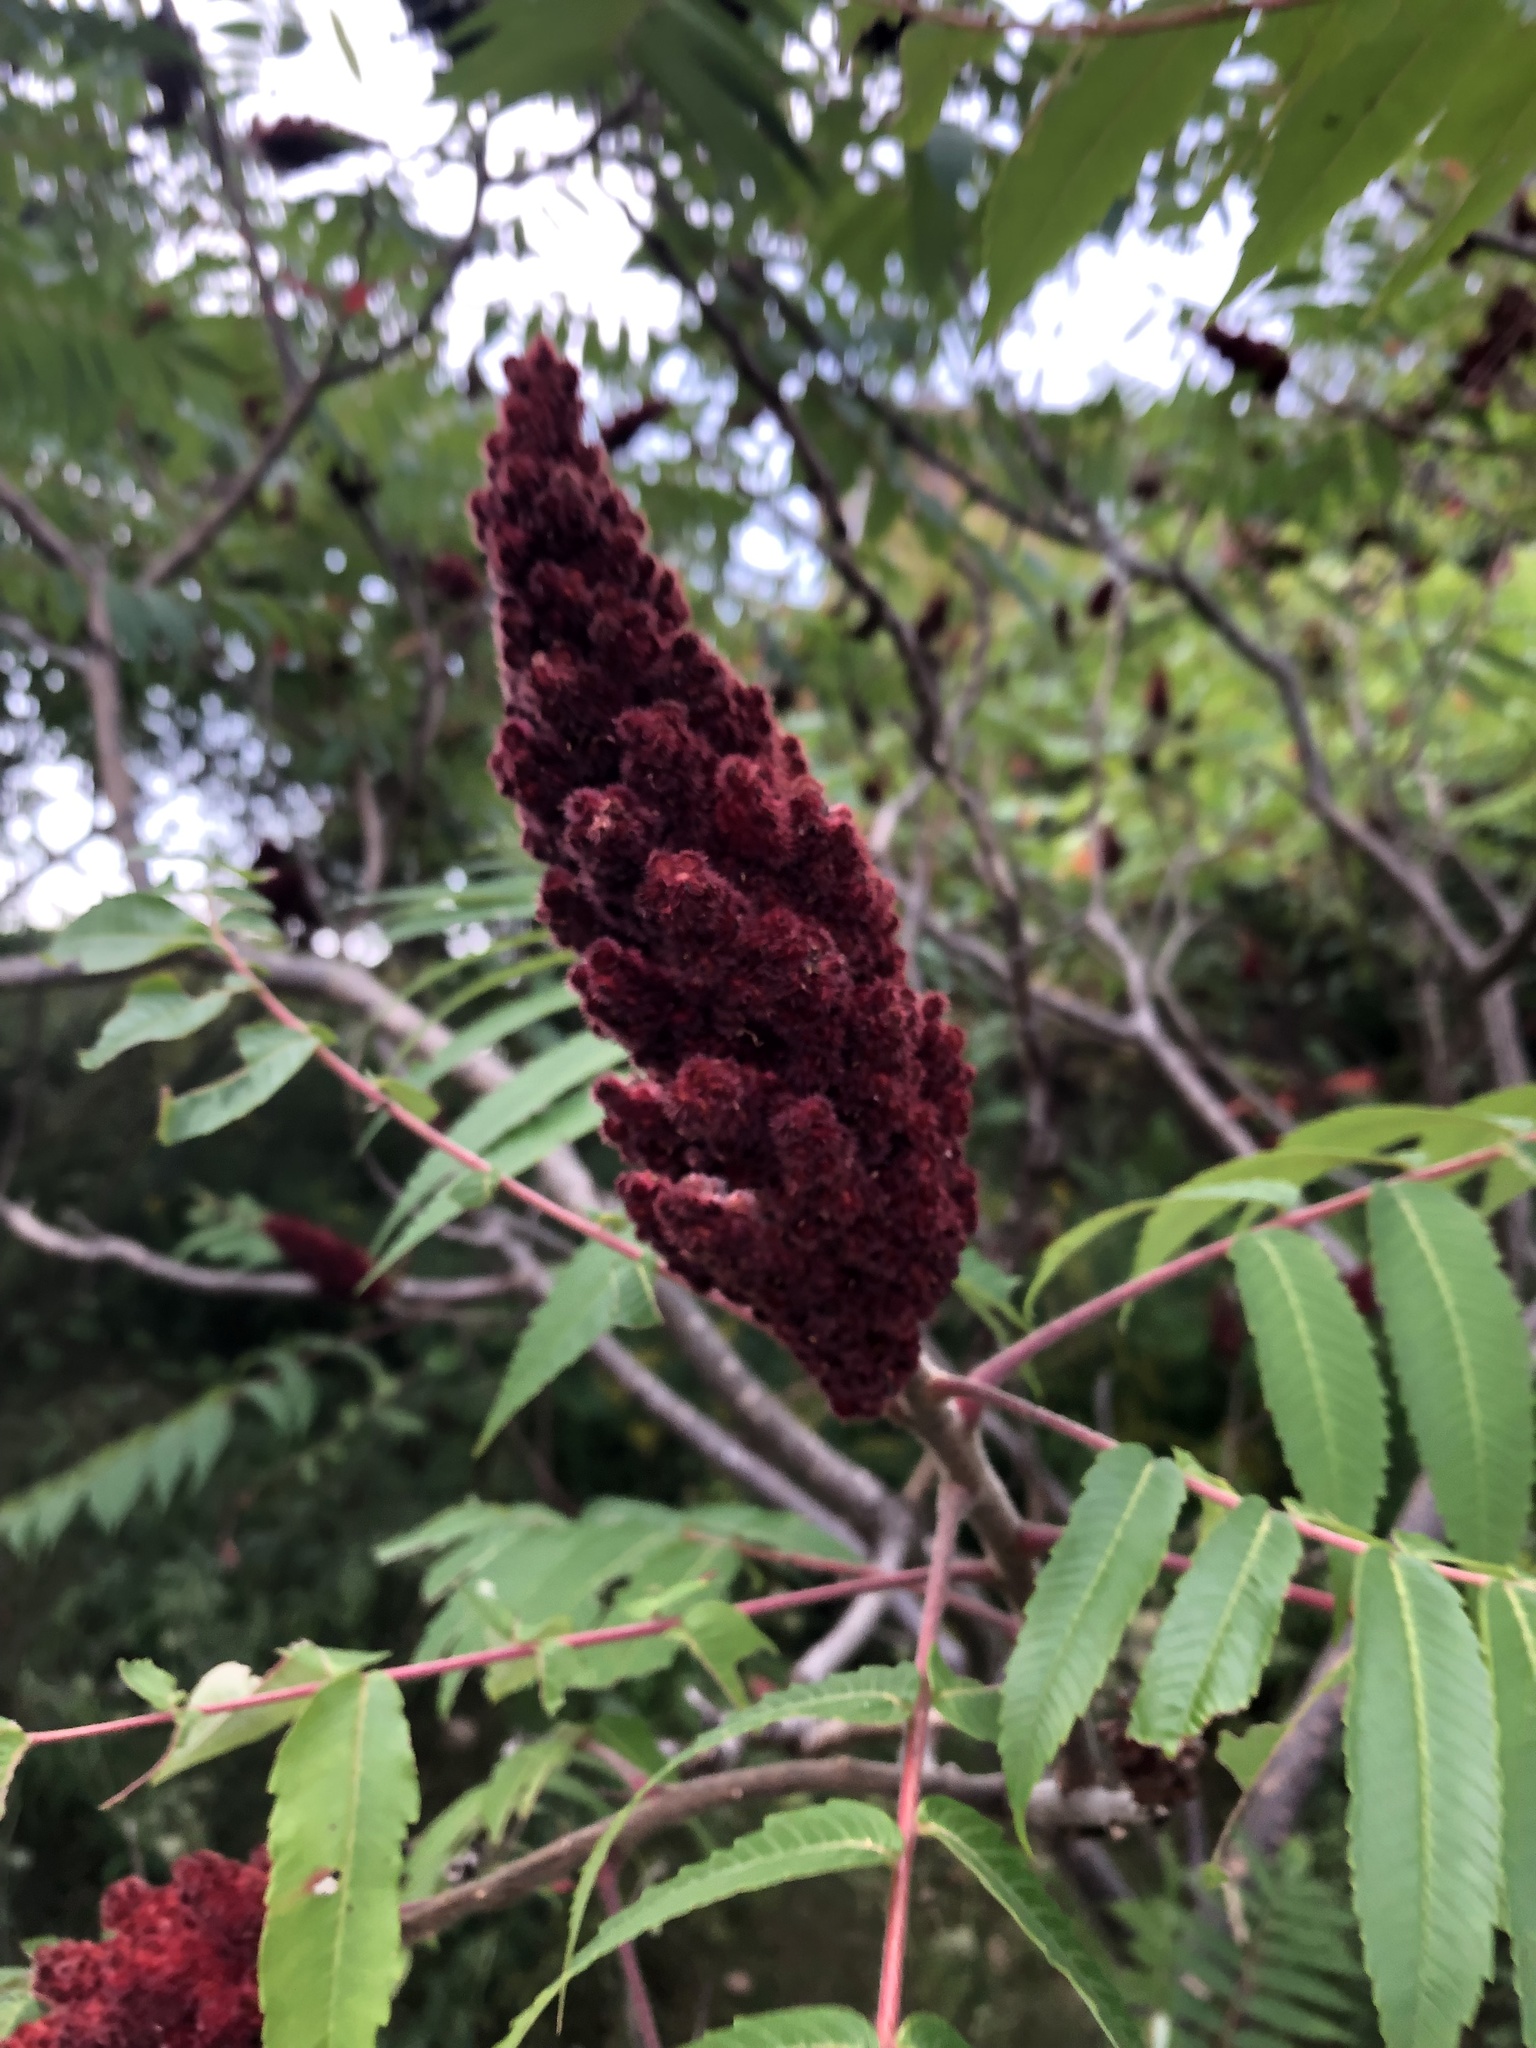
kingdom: Plantae
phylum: Tracheophyta
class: Magnoliopsida
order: Sapindales
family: Anacardiaceae
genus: Rhus
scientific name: Rhus typhina
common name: Staghorn sumac
